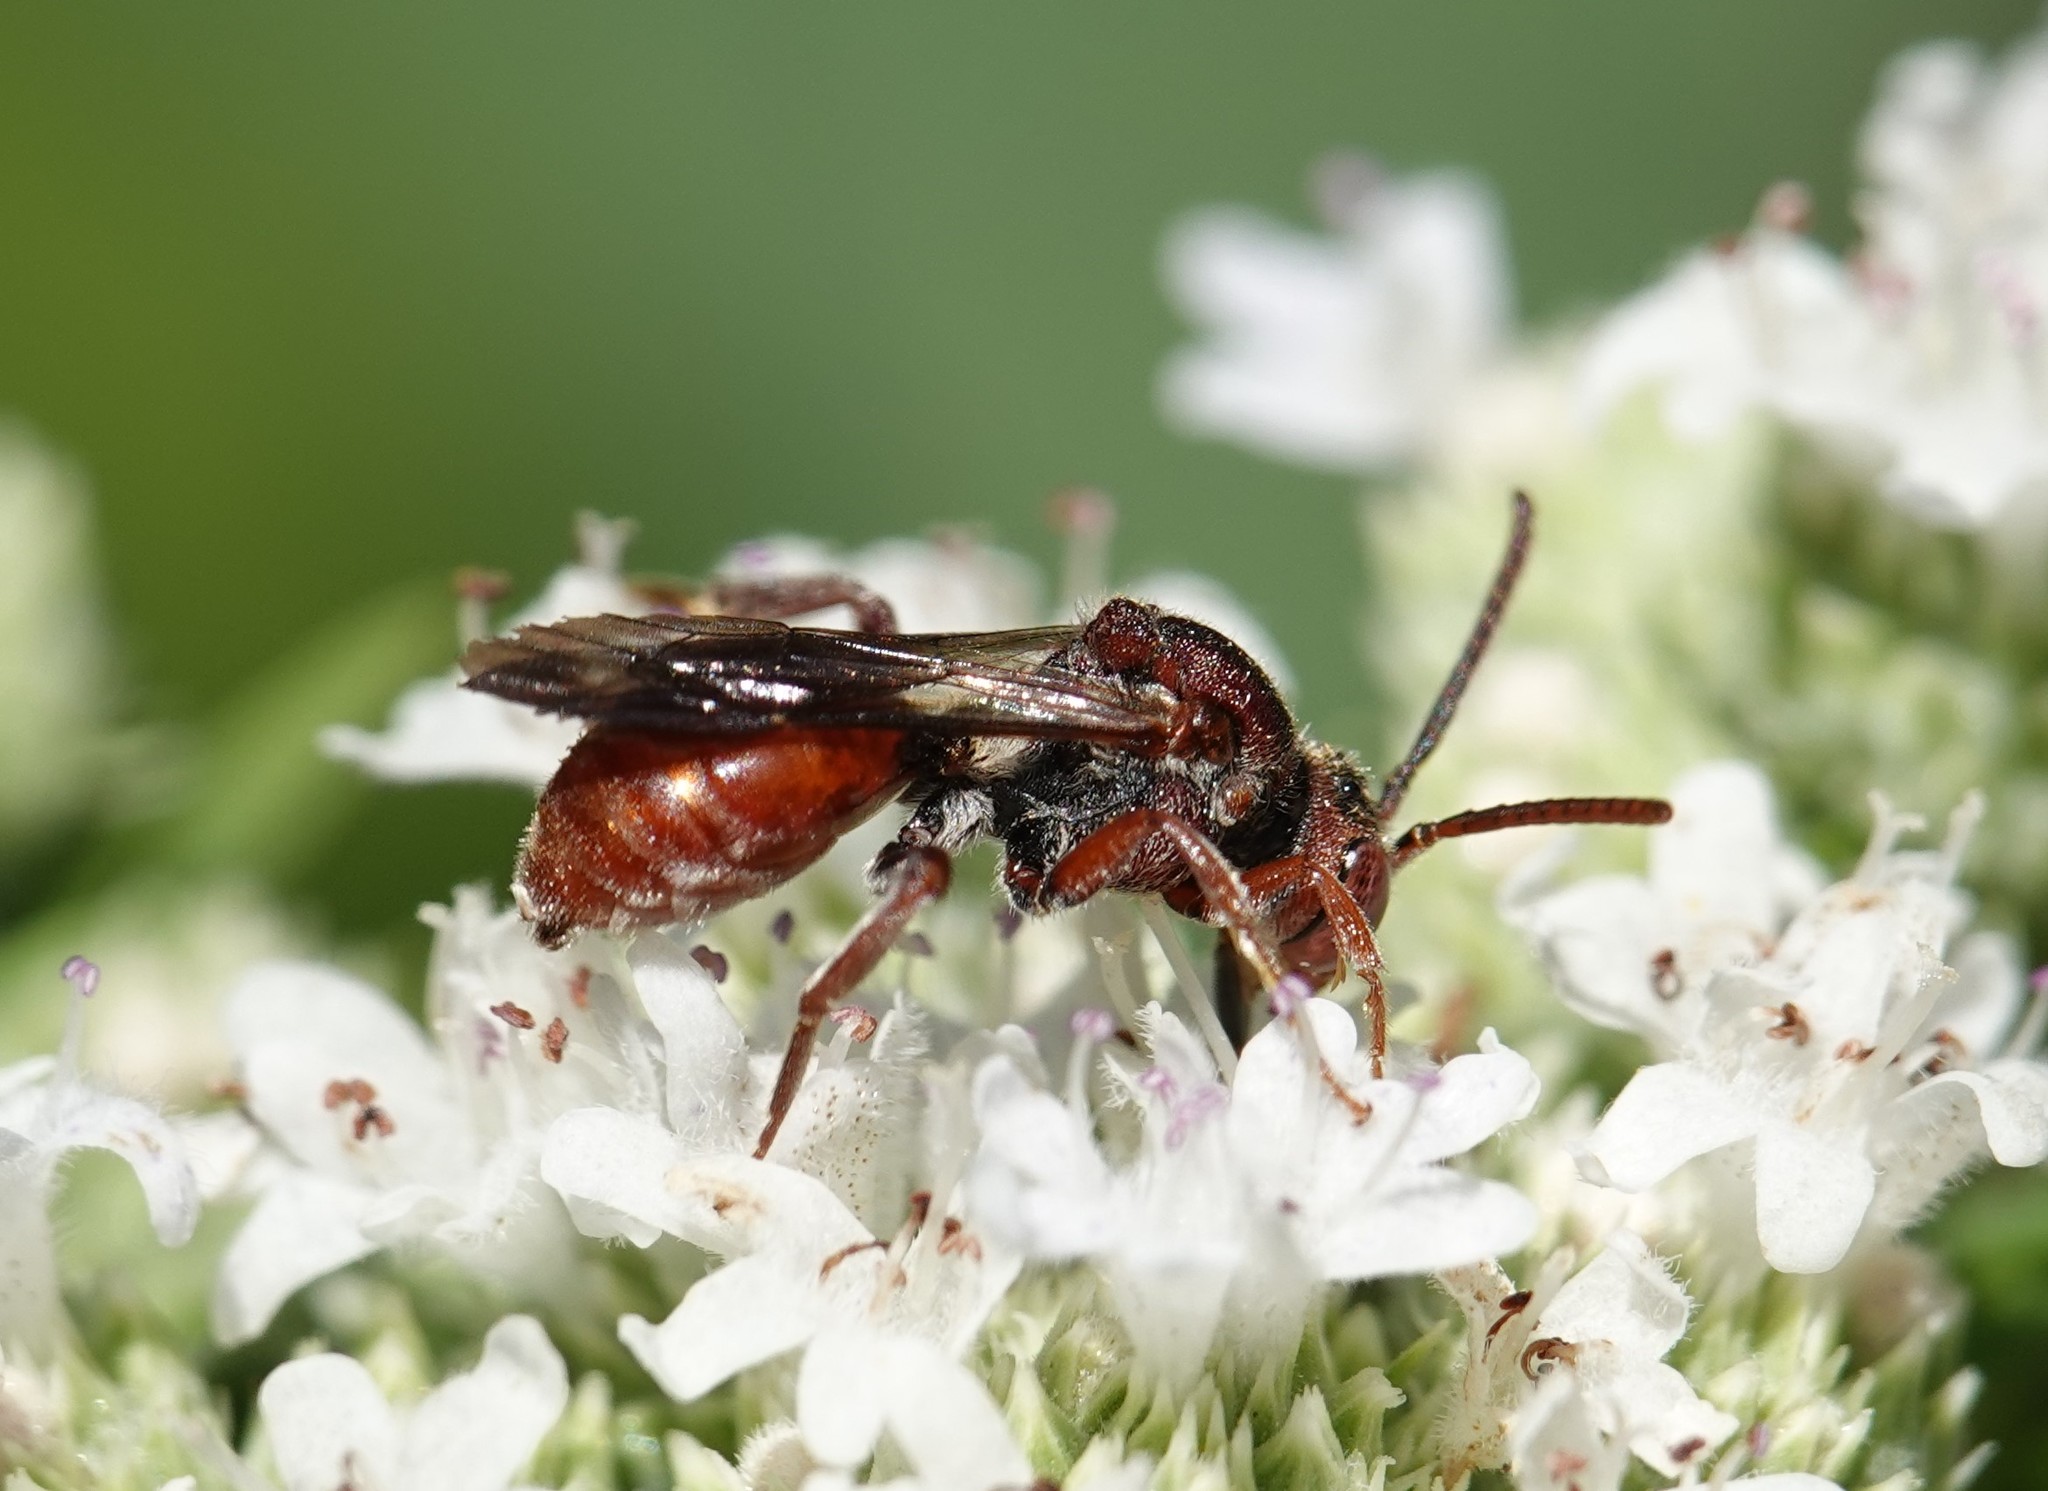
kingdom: Animalia
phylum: Arthropoda
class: Insecta
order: Hymenoptera
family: Apidae
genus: Nomada
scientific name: Nomada articulata
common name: Articulated nomad
